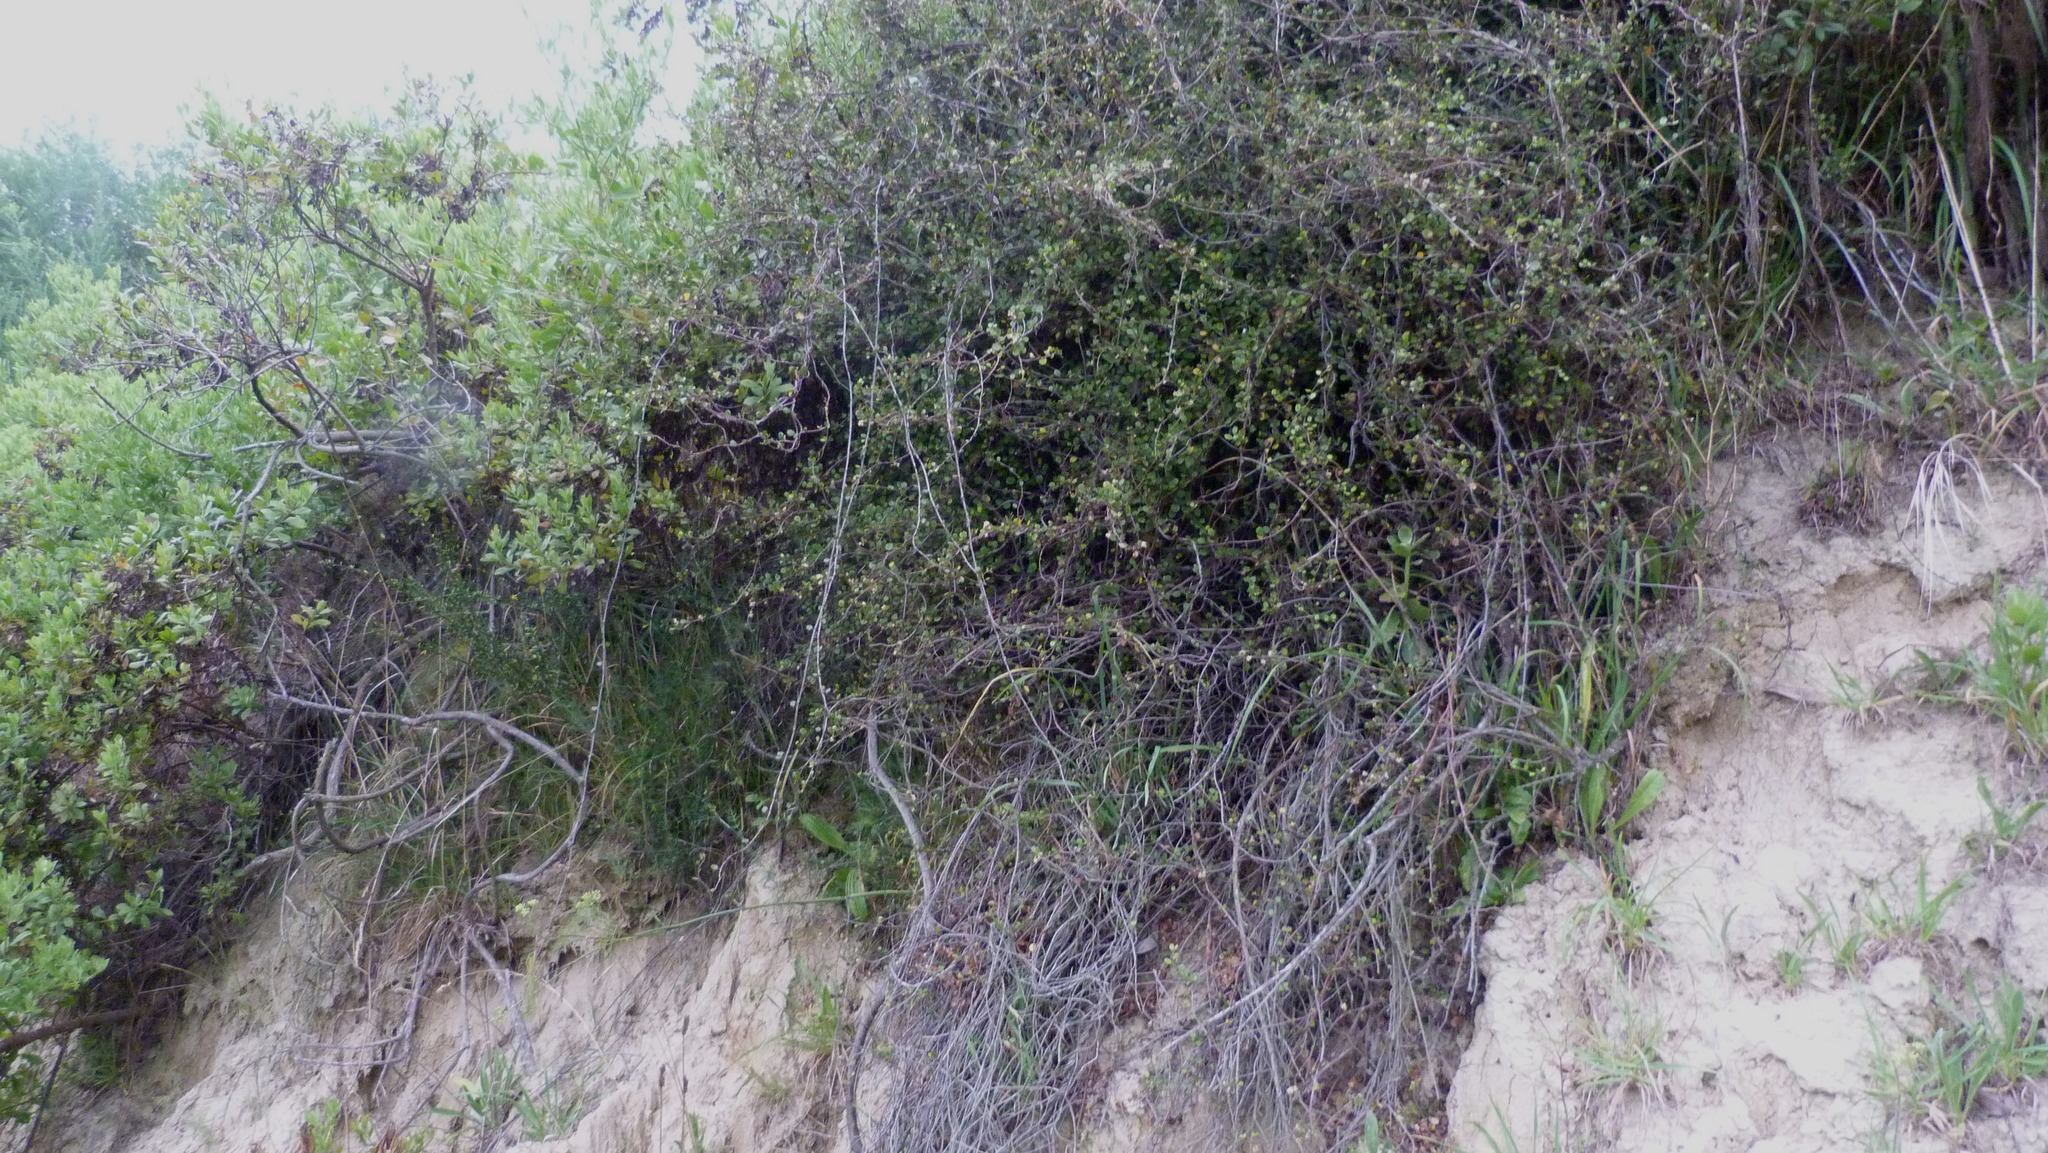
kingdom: Plantae
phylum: Tracheophyta
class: Magnoliopsida
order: Caryophyllales
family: Polygonaceae
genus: Muehlenbeckia
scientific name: Muehlenbeckia complexa
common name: Wireplant
